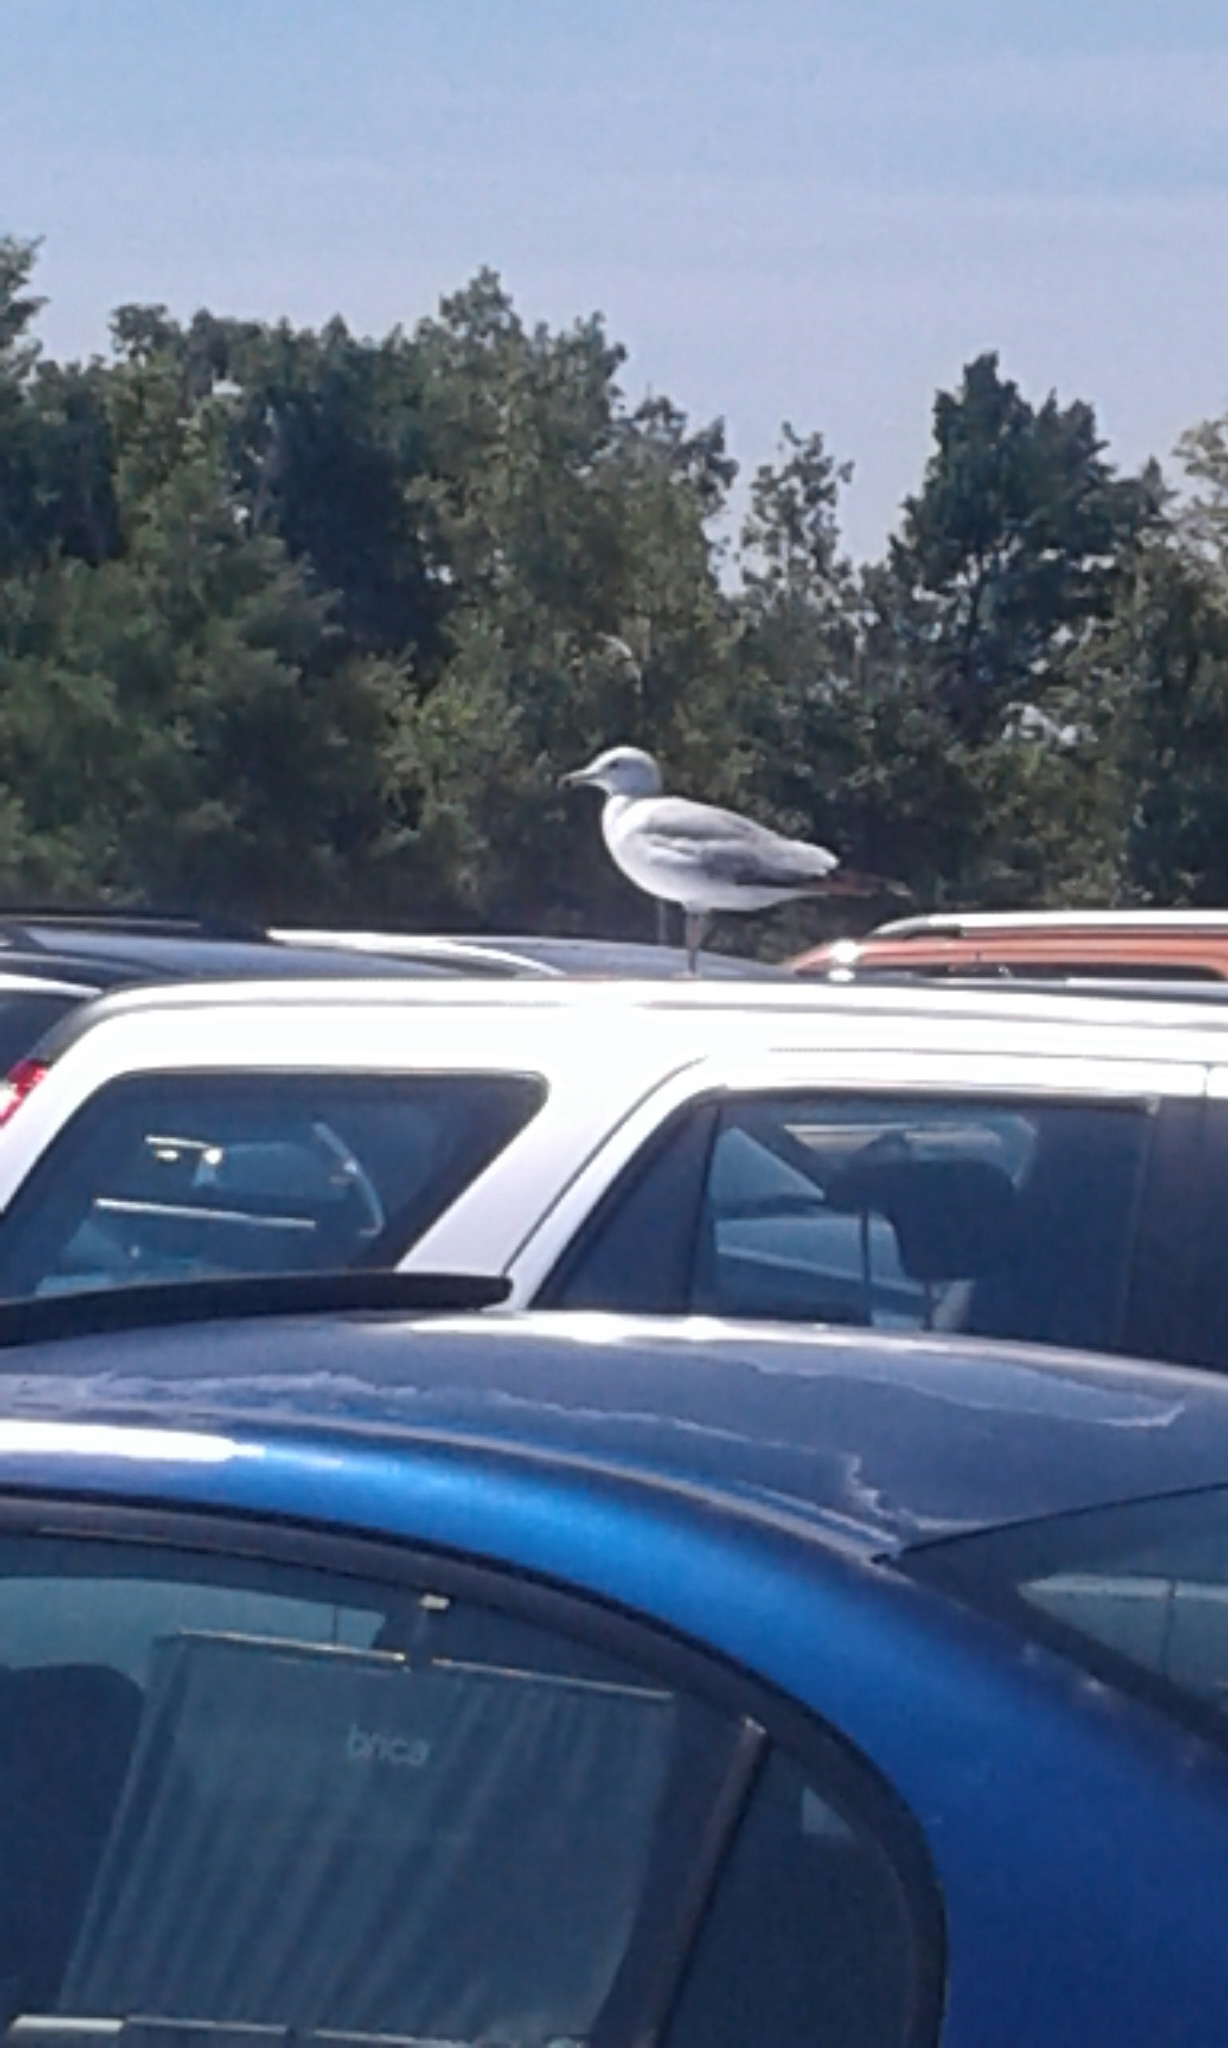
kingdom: Animalia
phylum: Chordata
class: Aves
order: Charadriiformes
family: Laridae
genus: Larus
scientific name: Larus delawarensis
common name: Ring-billed gull
